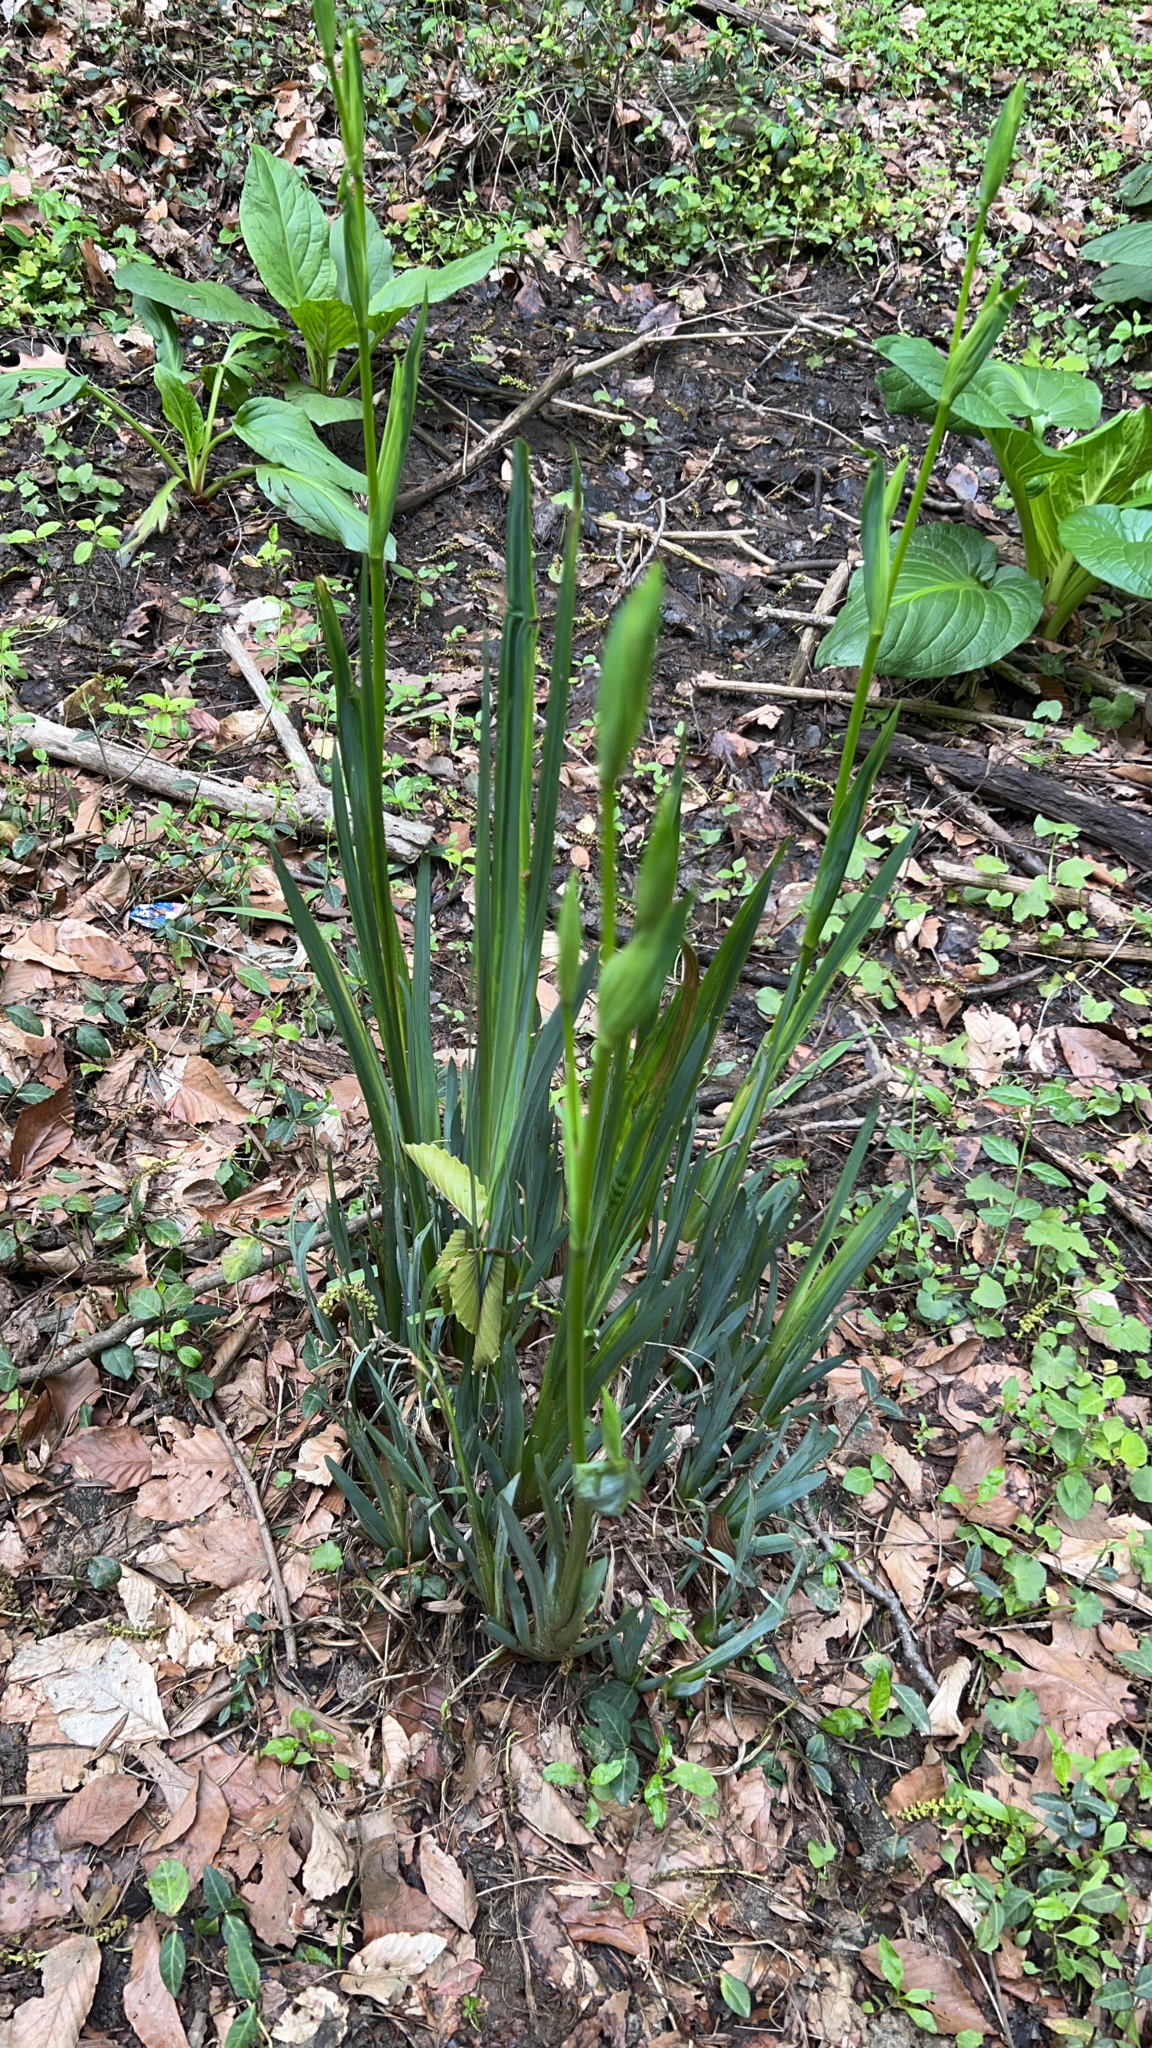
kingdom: Plantae
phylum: Tracheophyta
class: Liliopsida
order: Asparagales
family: Iridaceae
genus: Iris
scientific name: Iris pseudacorus
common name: Yellow flag
